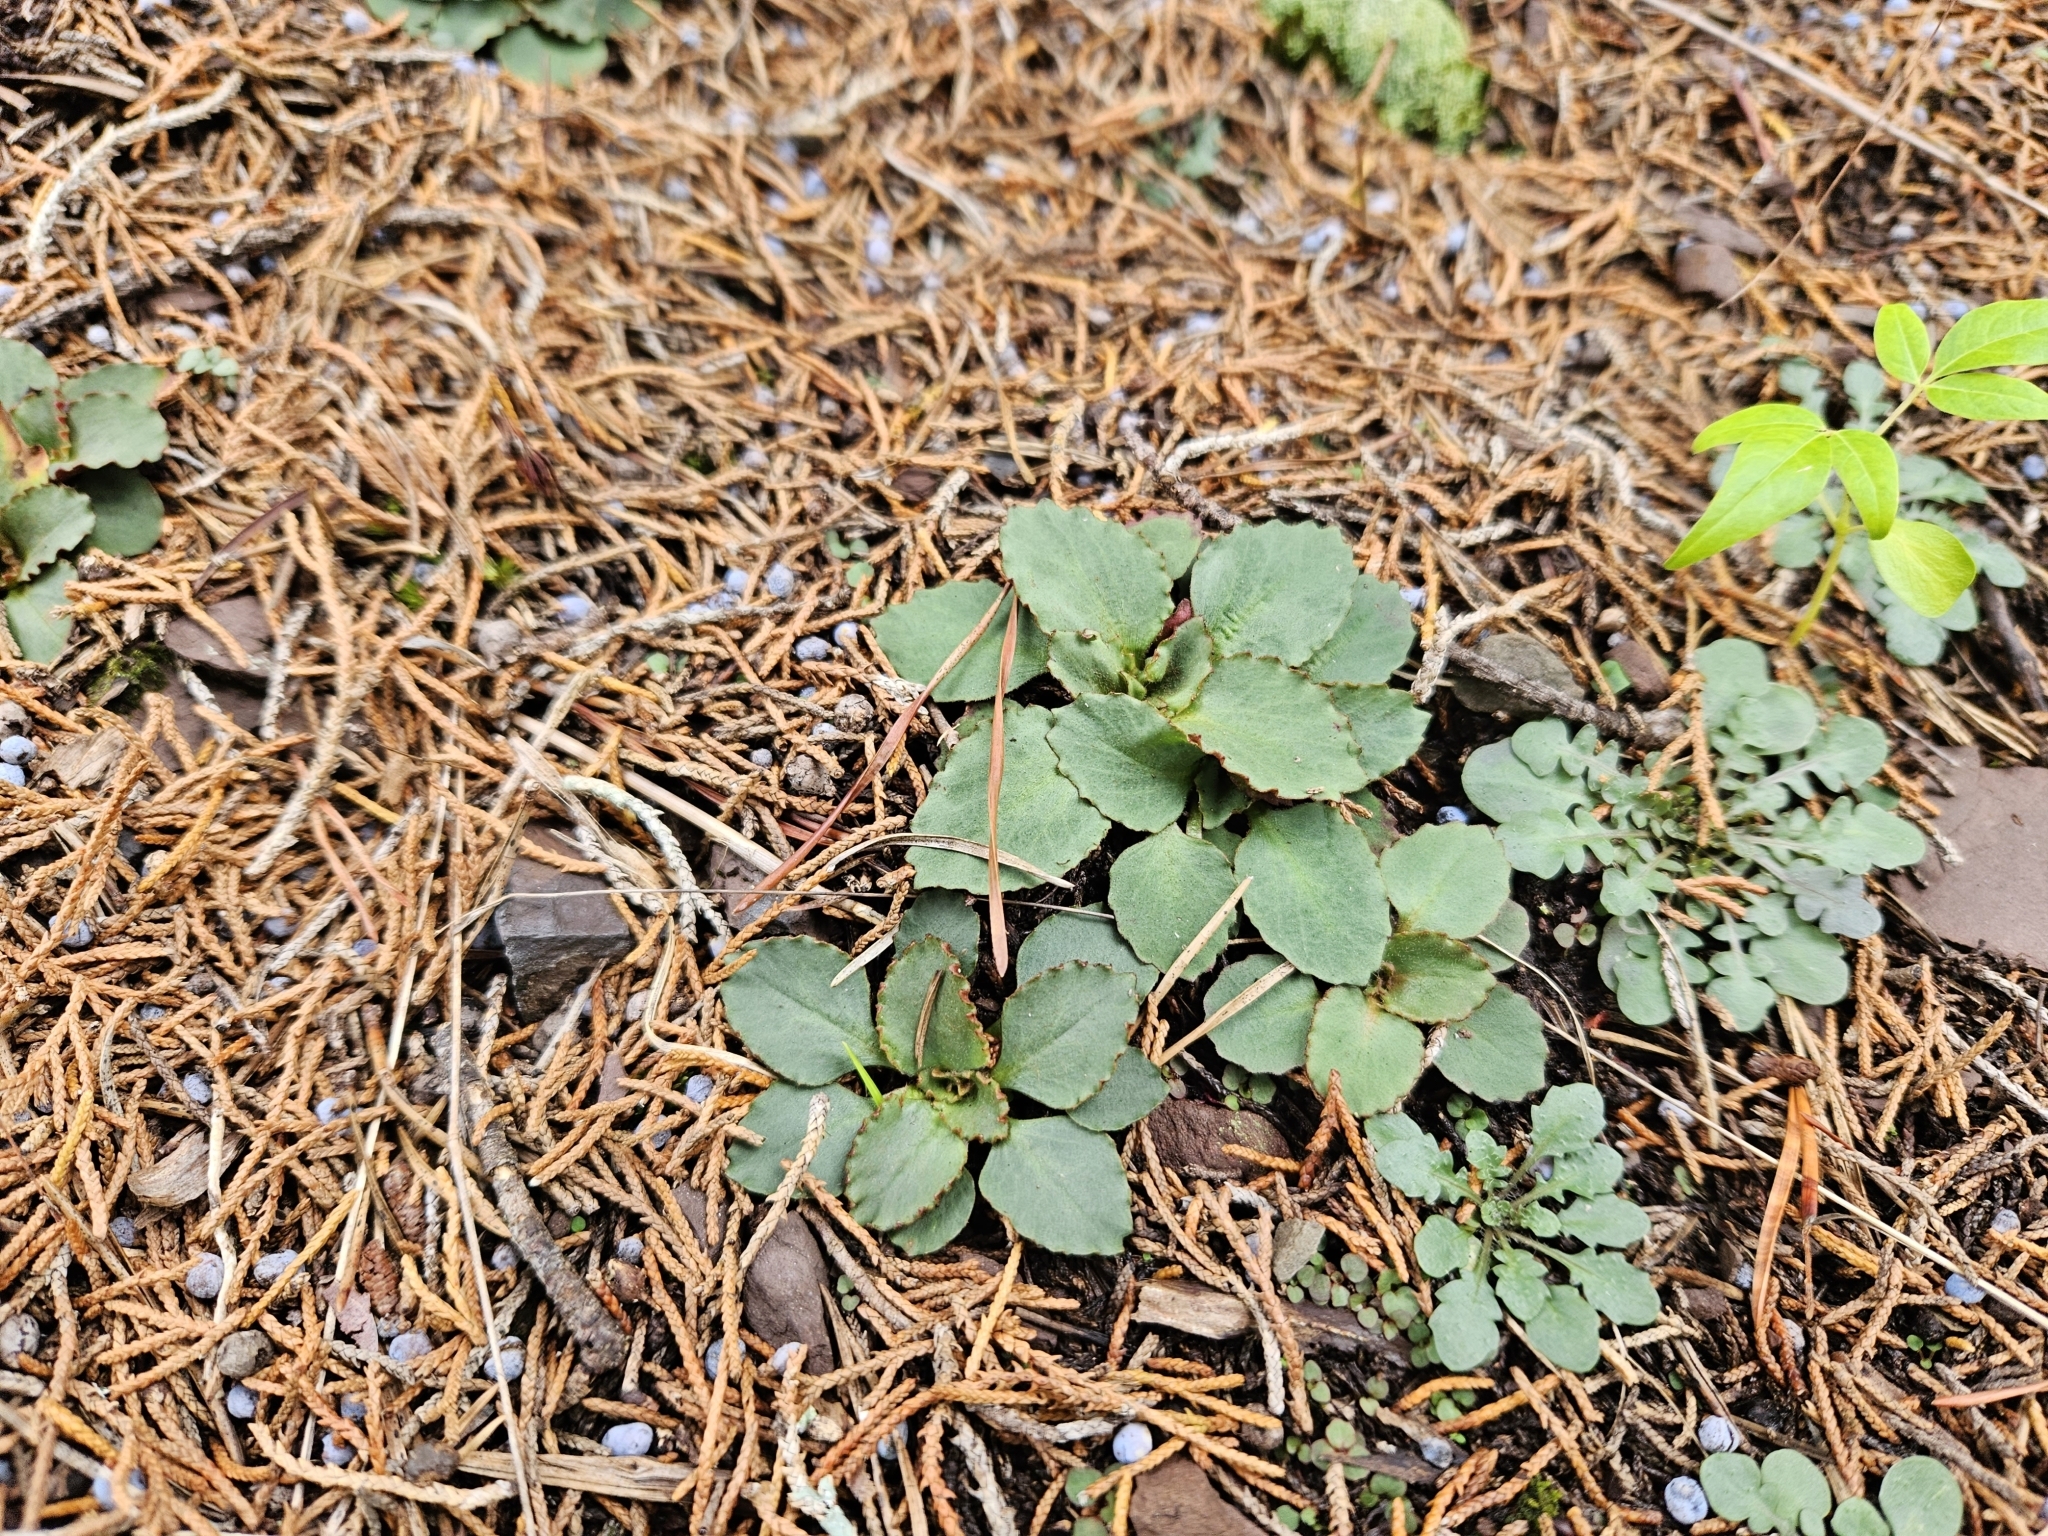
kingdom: Plantae
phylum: Tracheophyta
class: Magnoliopsida
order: Saxifragales
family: Saxifragaceae
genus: Micranthes
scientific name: Micranthes virginiensis
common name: Early saxifrage
